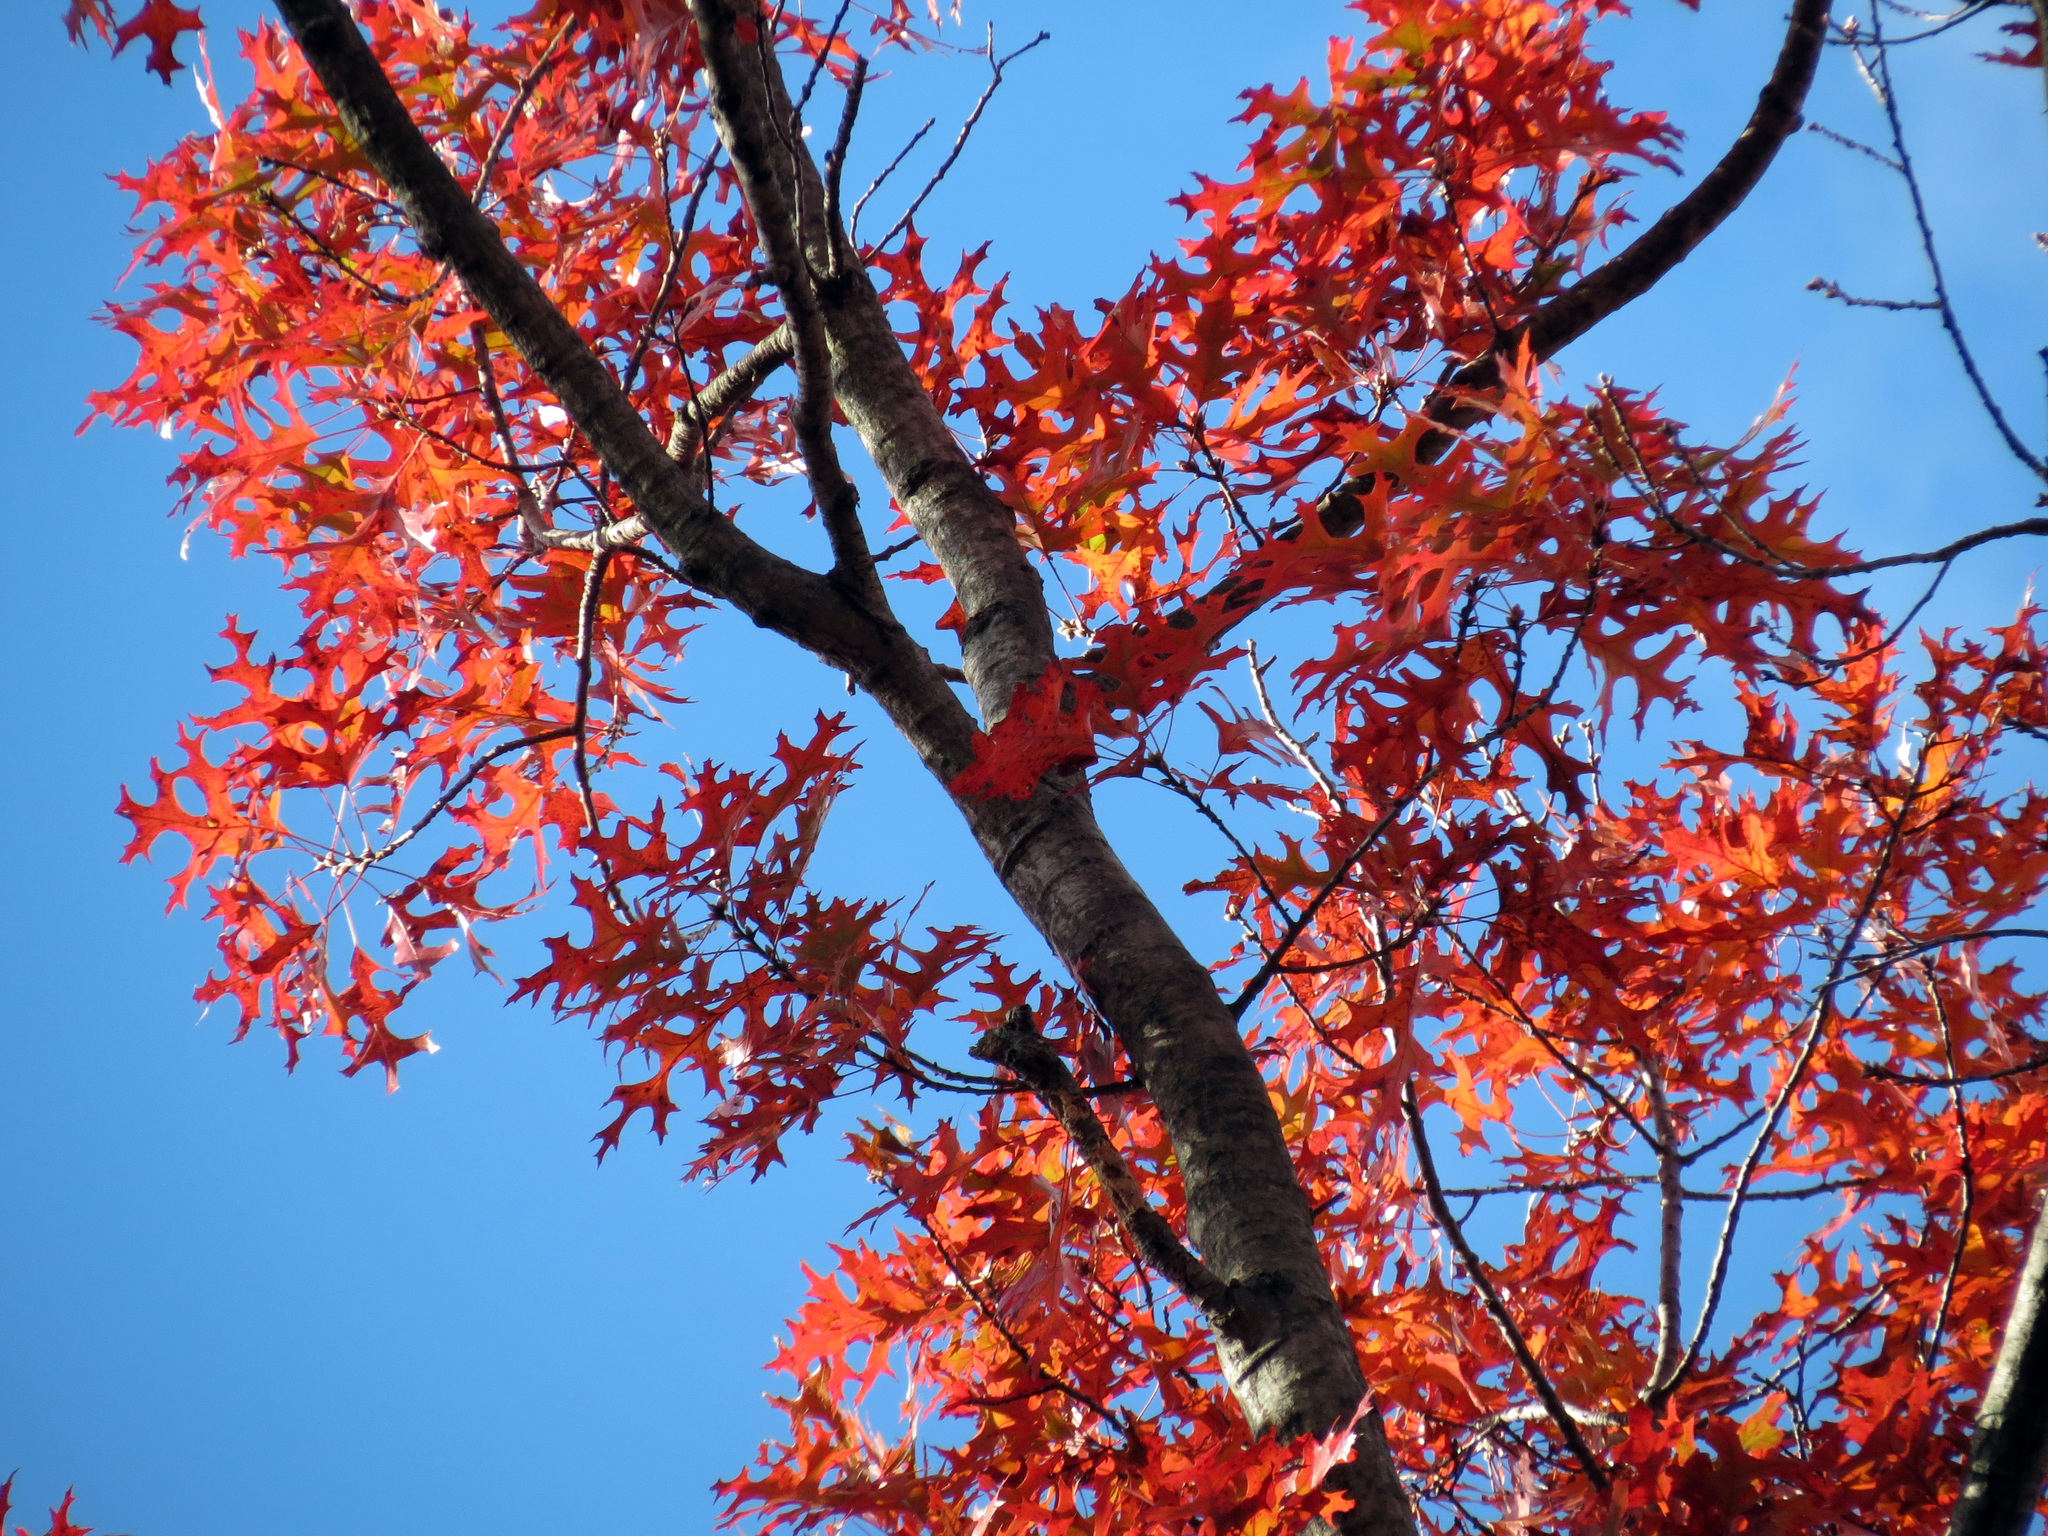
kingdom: Plantae
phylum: Tracheophyta
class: Magnoliopsida
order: Fagales
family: Fagaceae
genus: Quercus
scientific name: Quercus coccinea
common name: Scarlet oak
